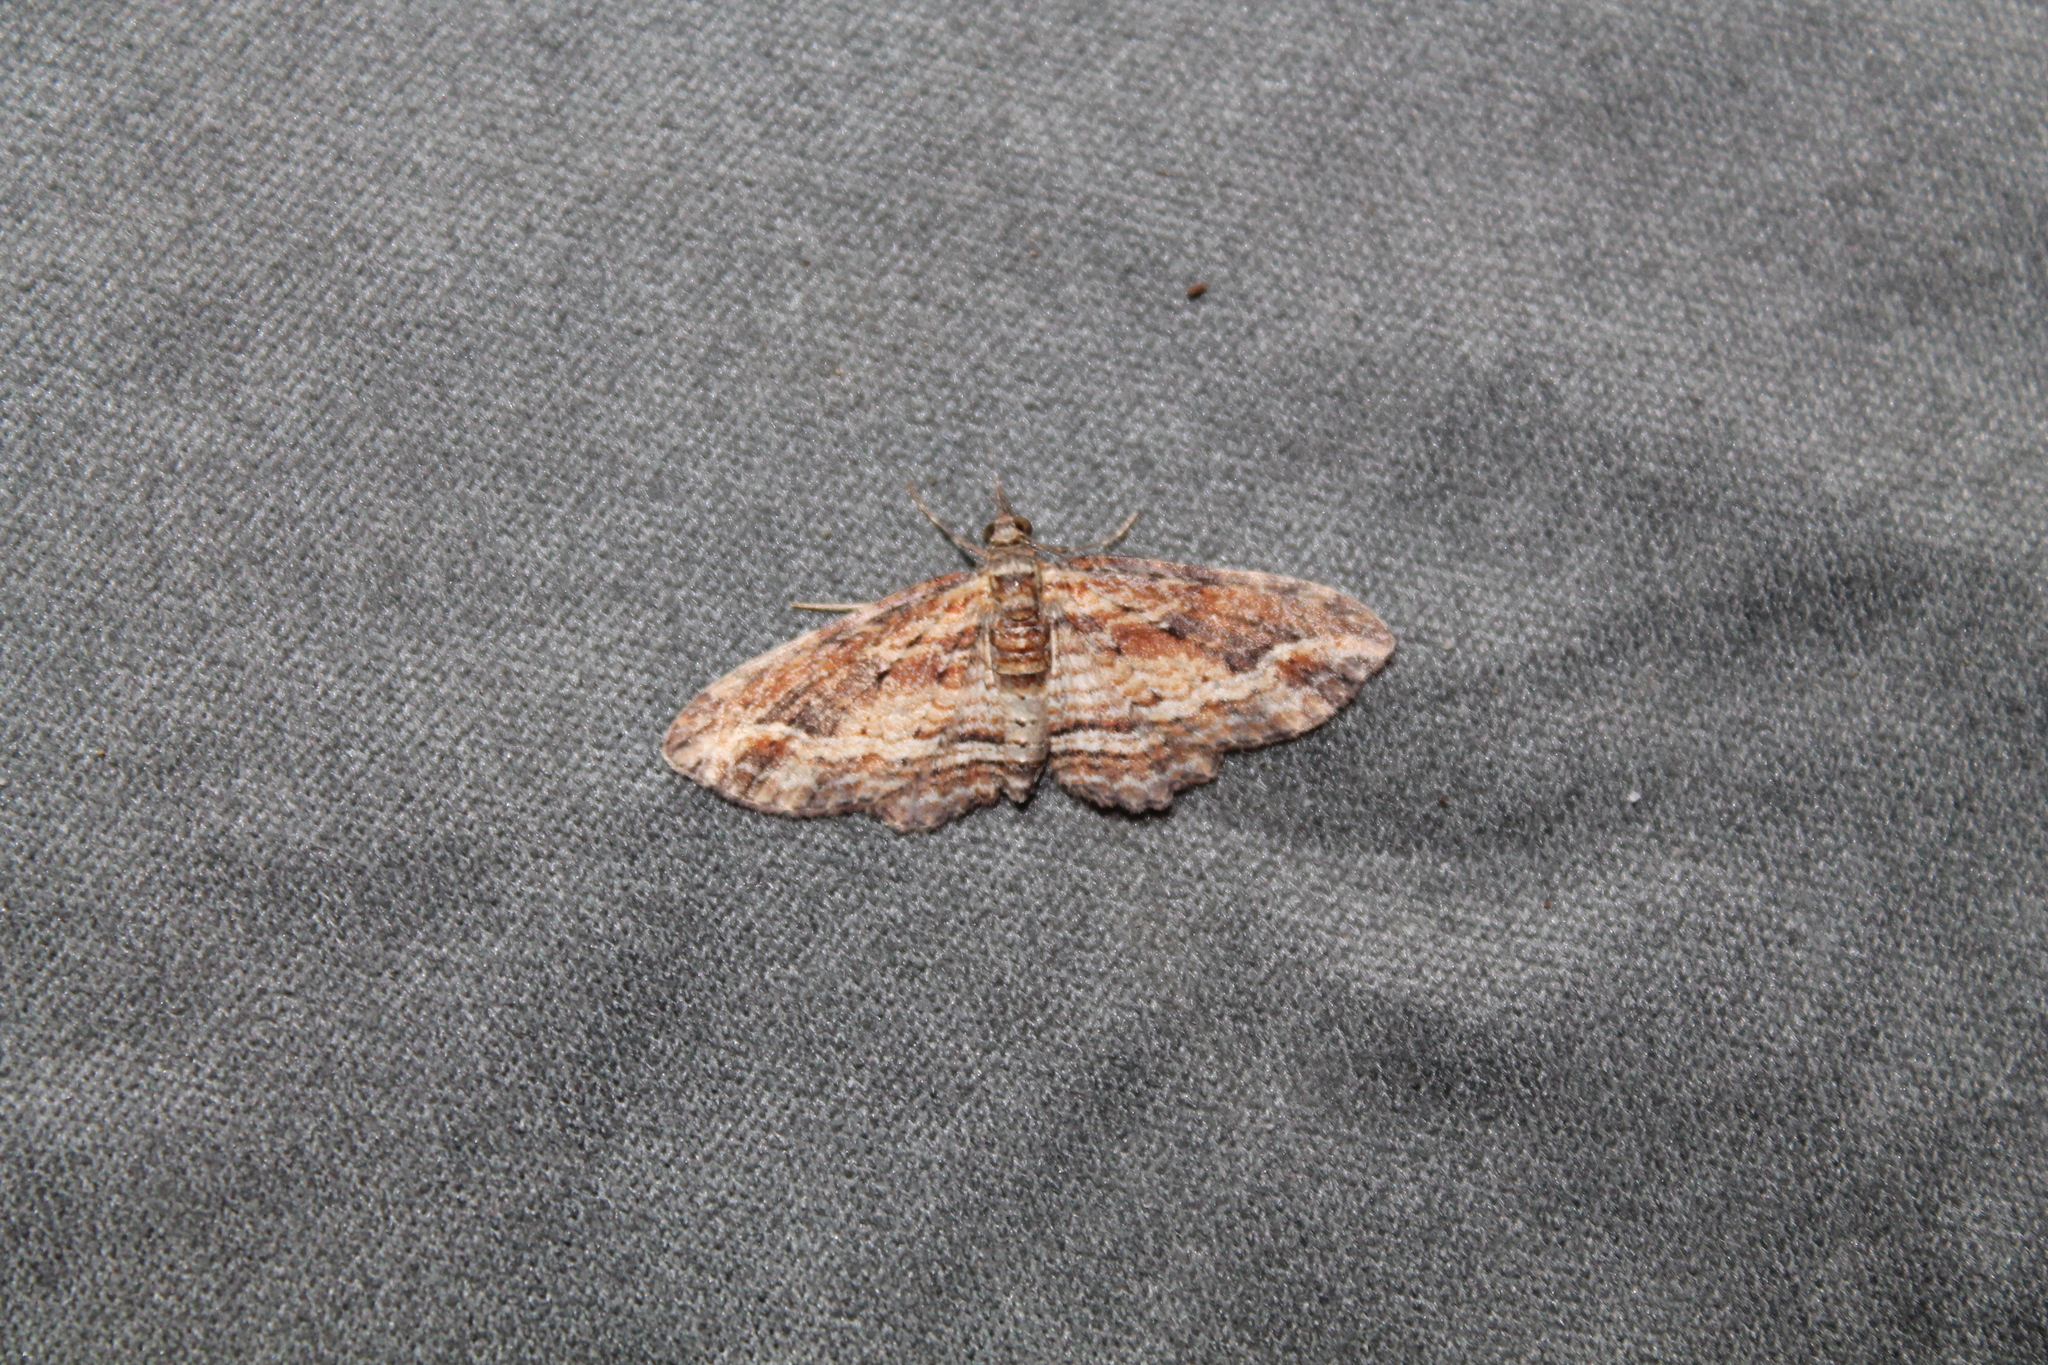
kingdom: Animalia
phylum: Arthropoda
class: Insecta
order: Lepidoptera
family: Geometridae
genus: Chloroclystis
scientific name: Chloroclystis filata
